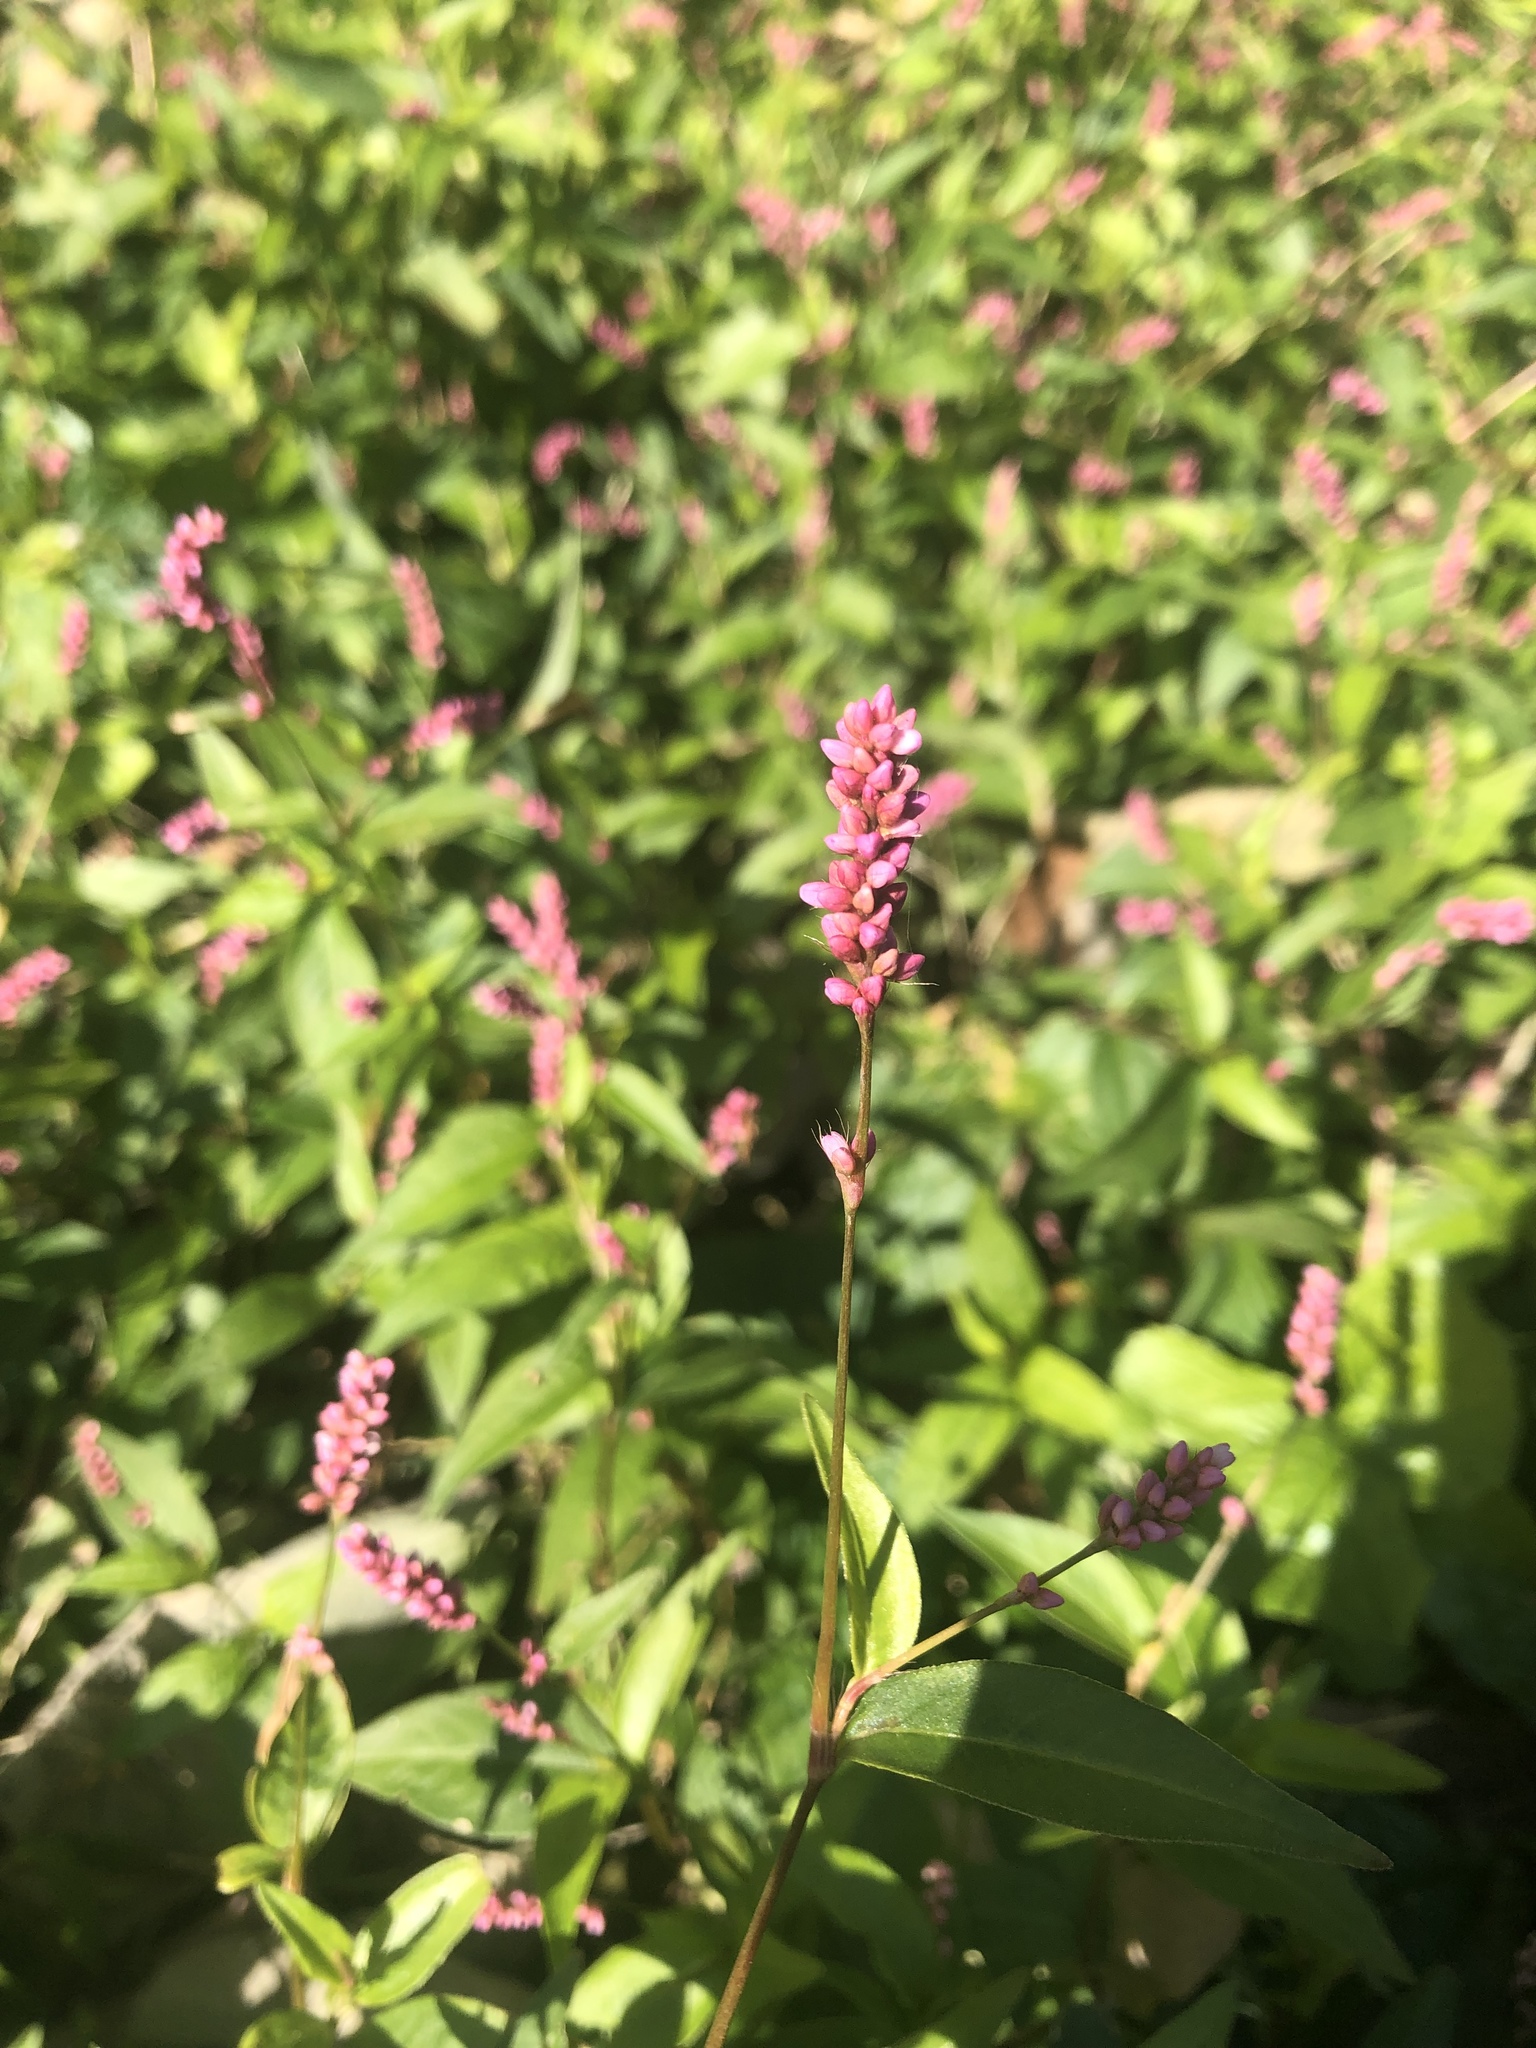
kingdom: Plantae
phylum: Tracheophyta
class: Magnoliopsida
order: Caryophyllales
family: Polygonaceae
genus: Persicaria
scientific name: Persicaria longiseta
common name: Bristly lady's-thumb
